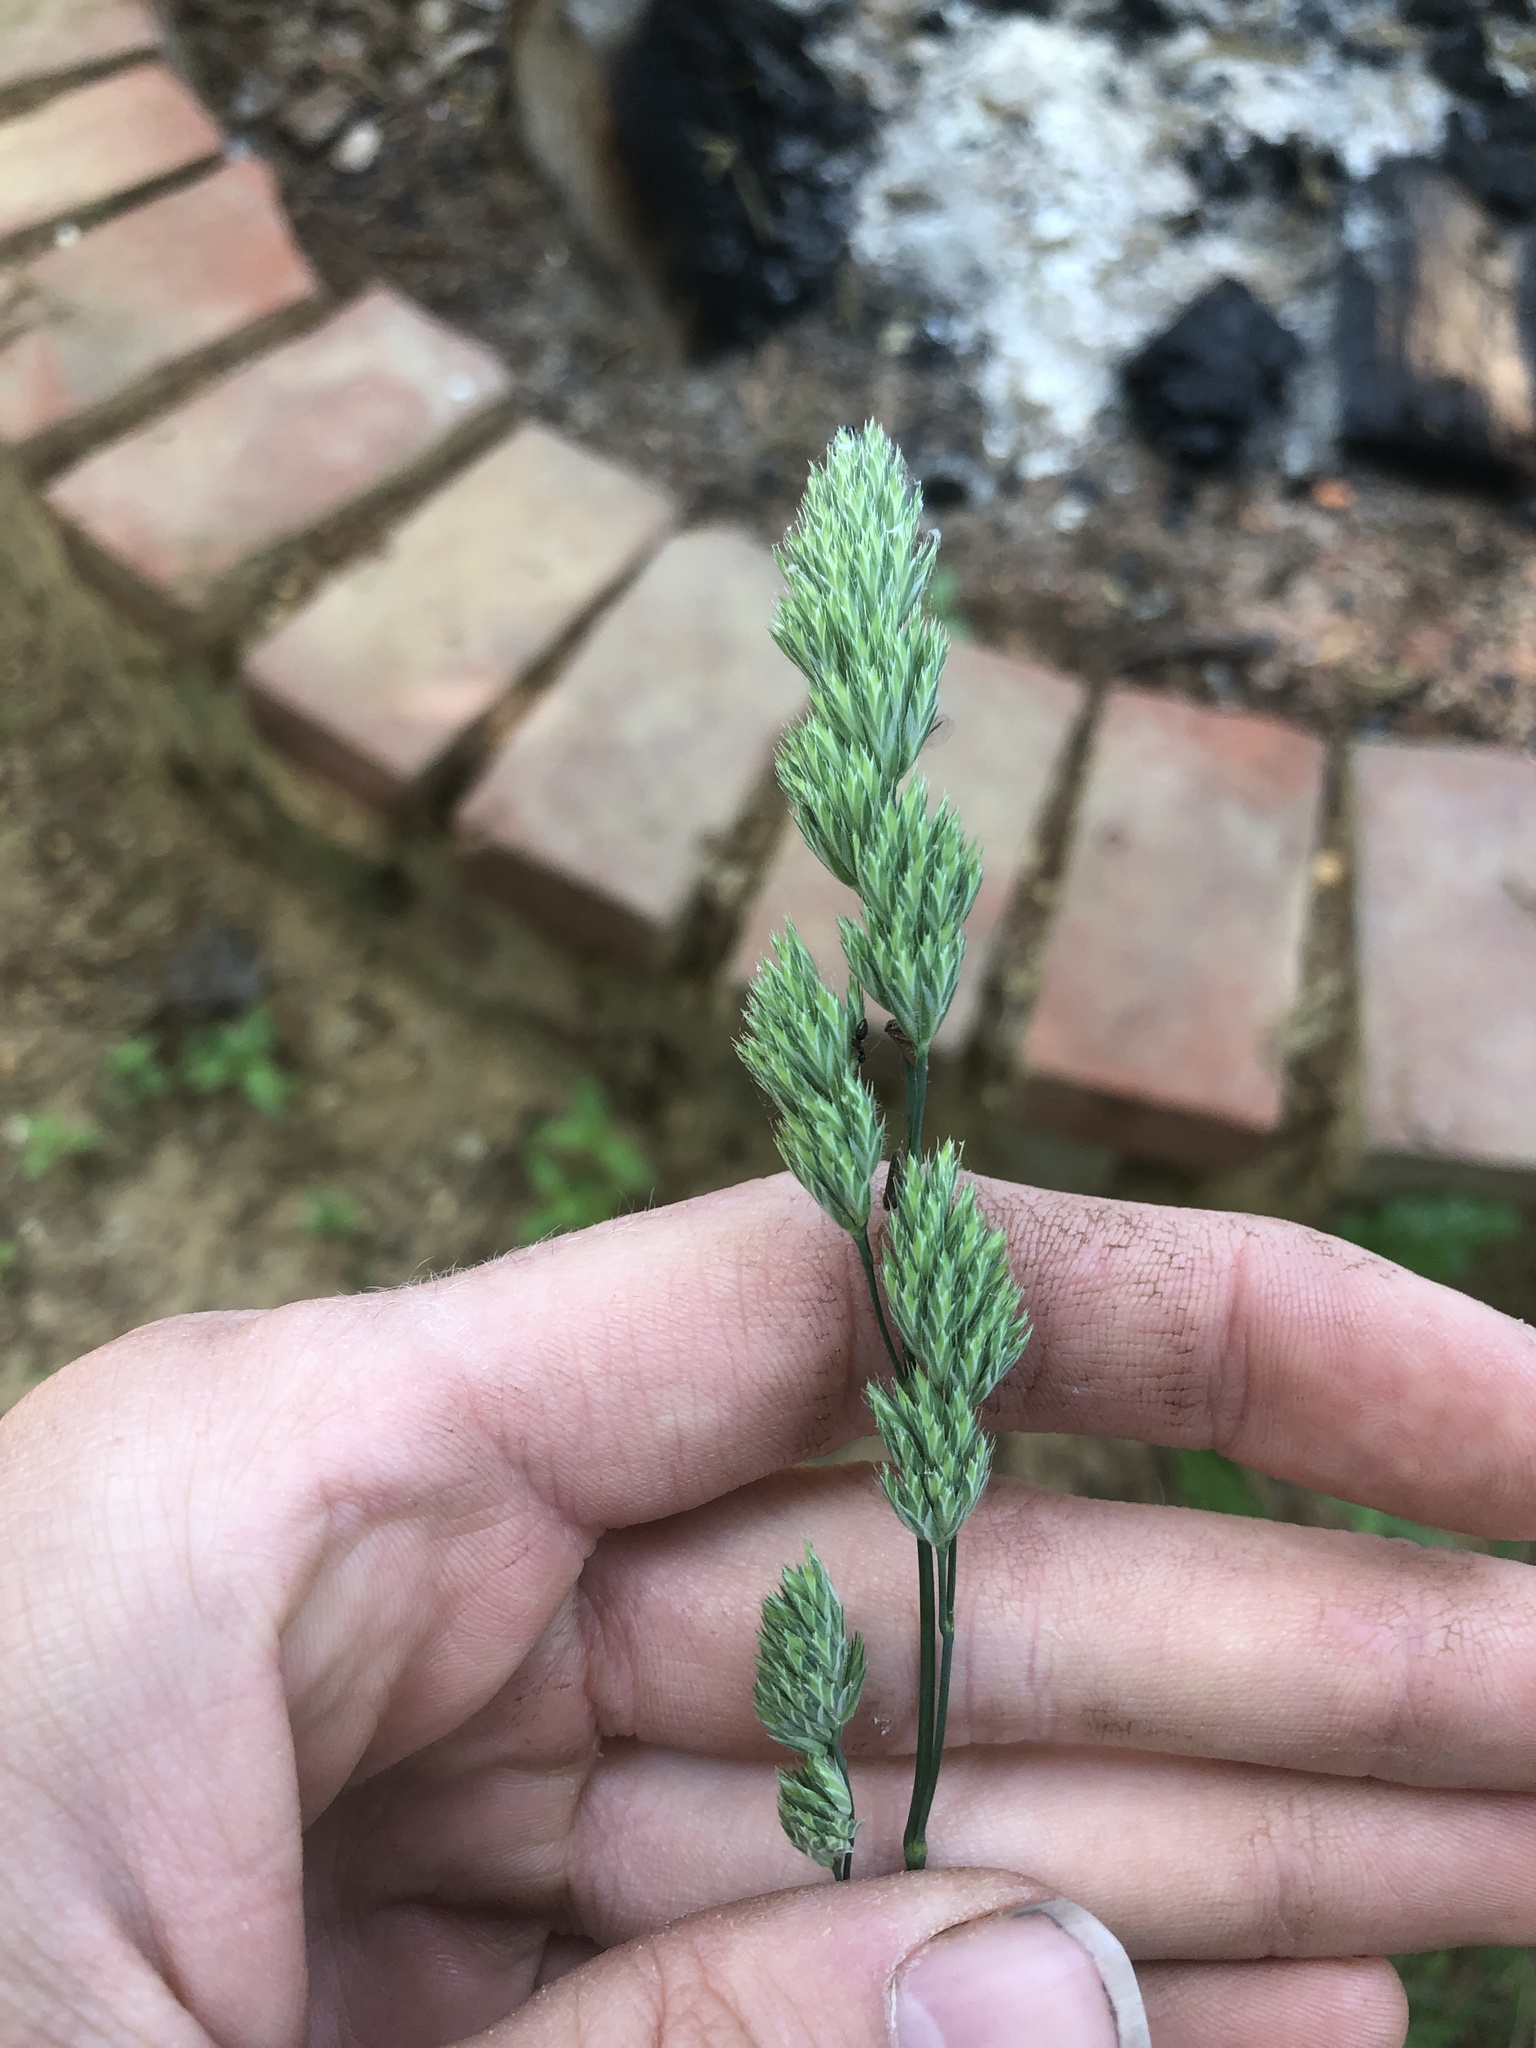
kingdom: Plantae
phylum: Tracheophyta
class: Liliopsida
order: Poales
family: Poaceae
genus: Dactylis
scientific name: Dactylis glomerata
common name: Orchardgrass
